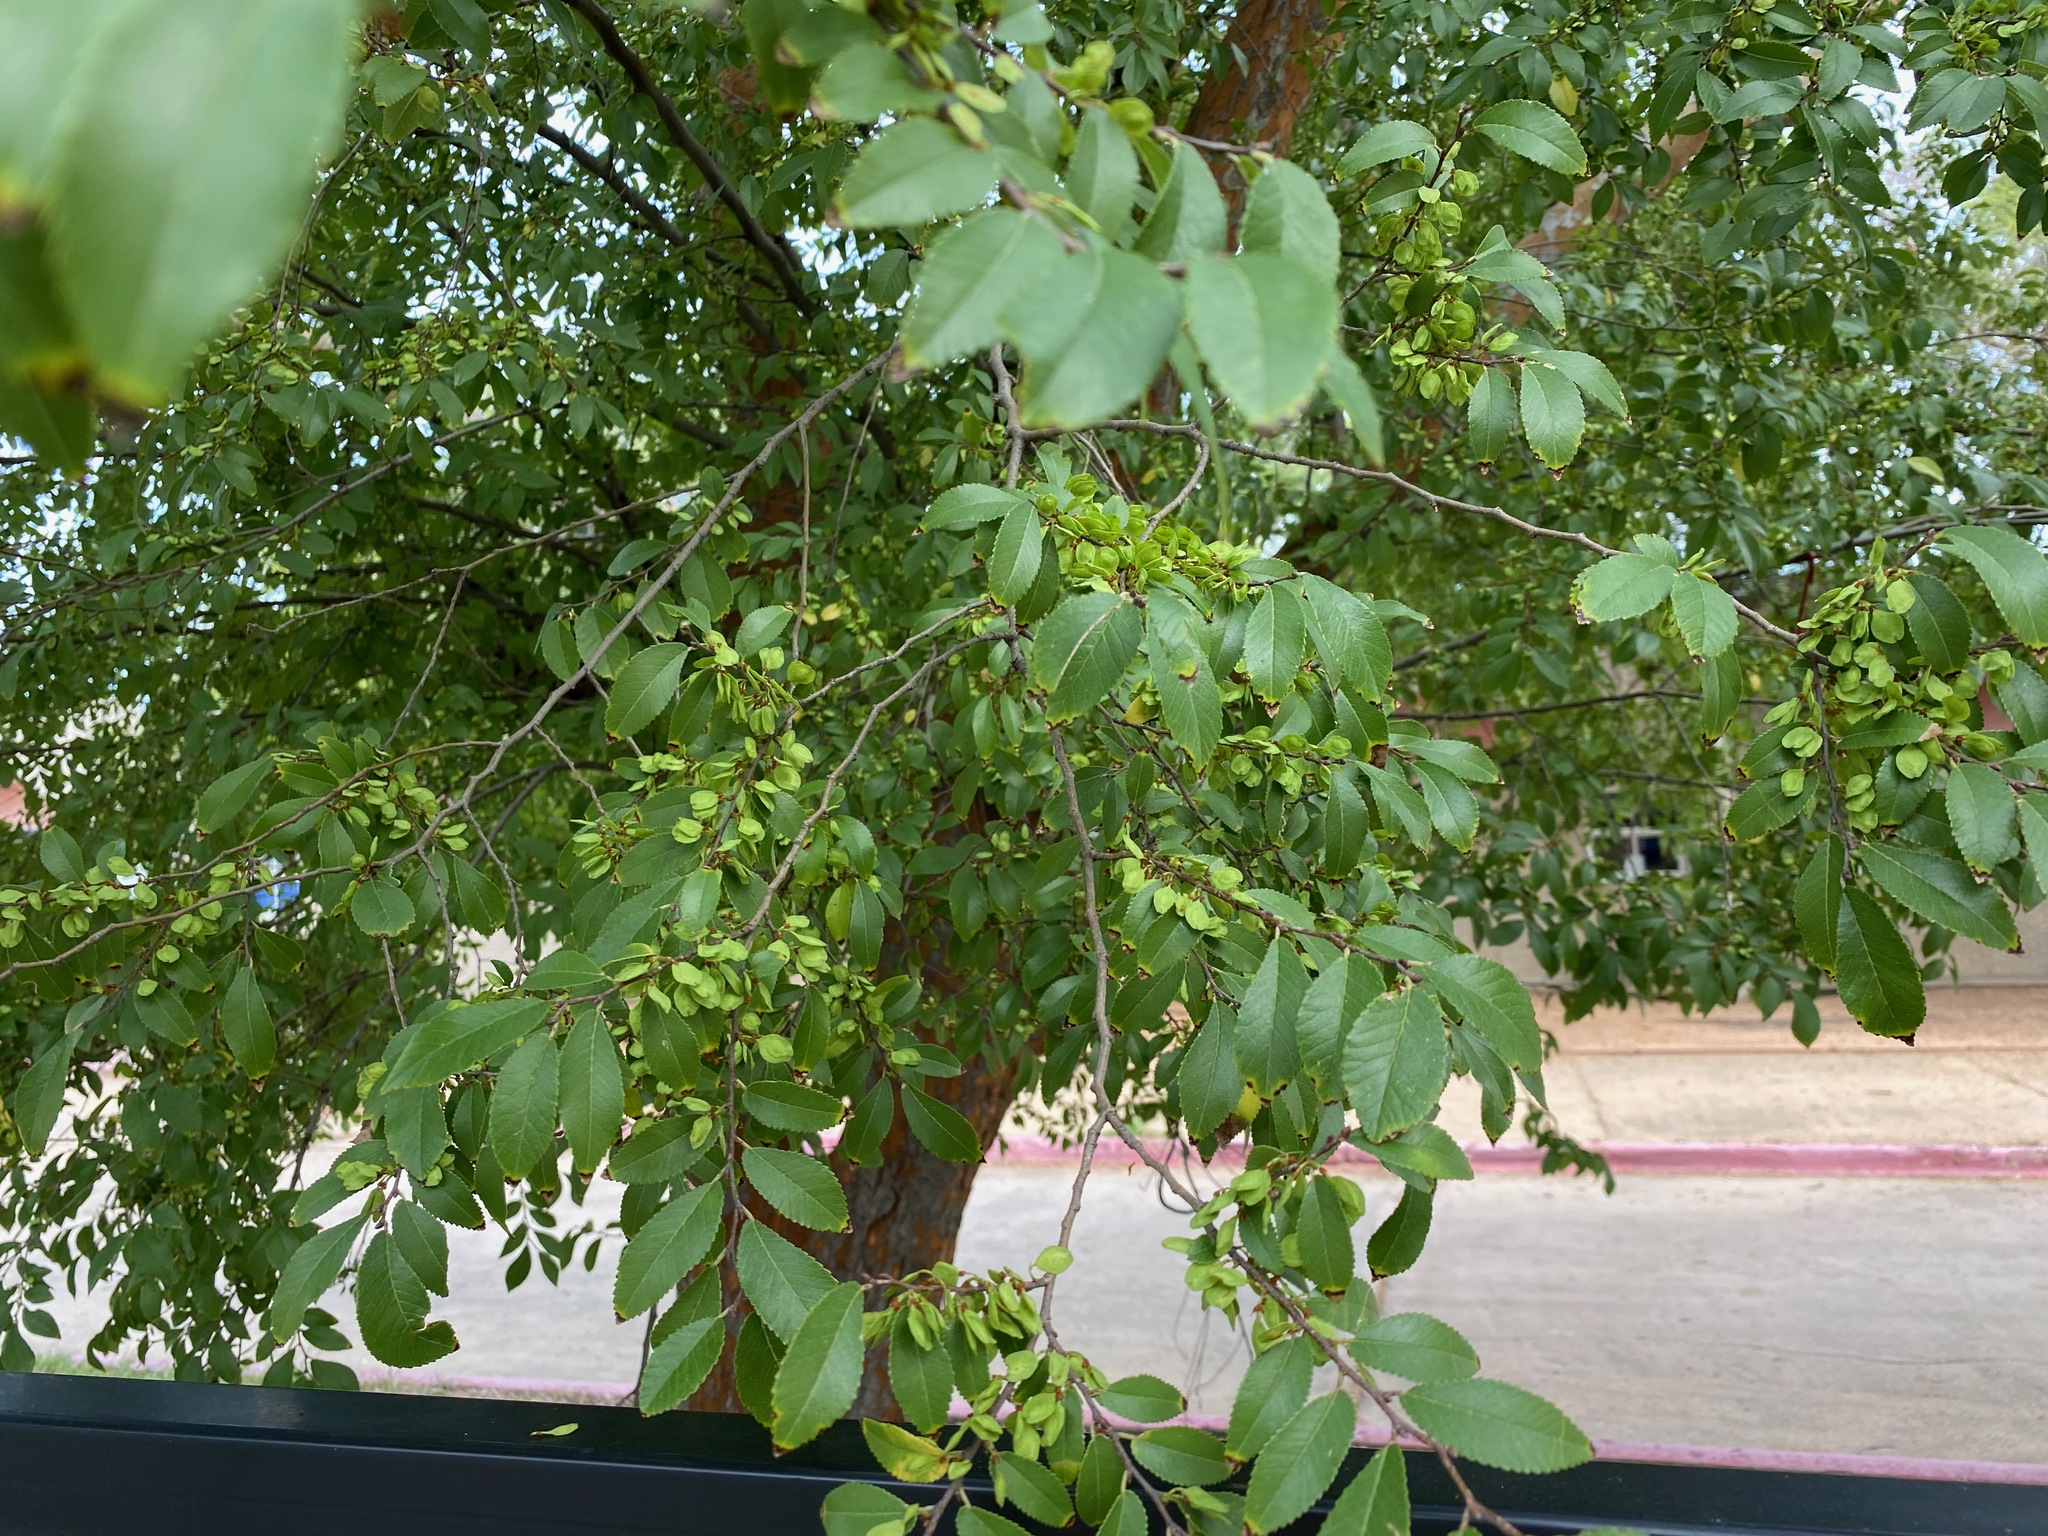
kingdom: Plantae
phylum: Tracheophyta
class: Magnoliopsida
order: Rosales
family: Ulmaceae
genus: Ulmus
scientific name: Ulmus parvifolia
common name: Chinese elm
